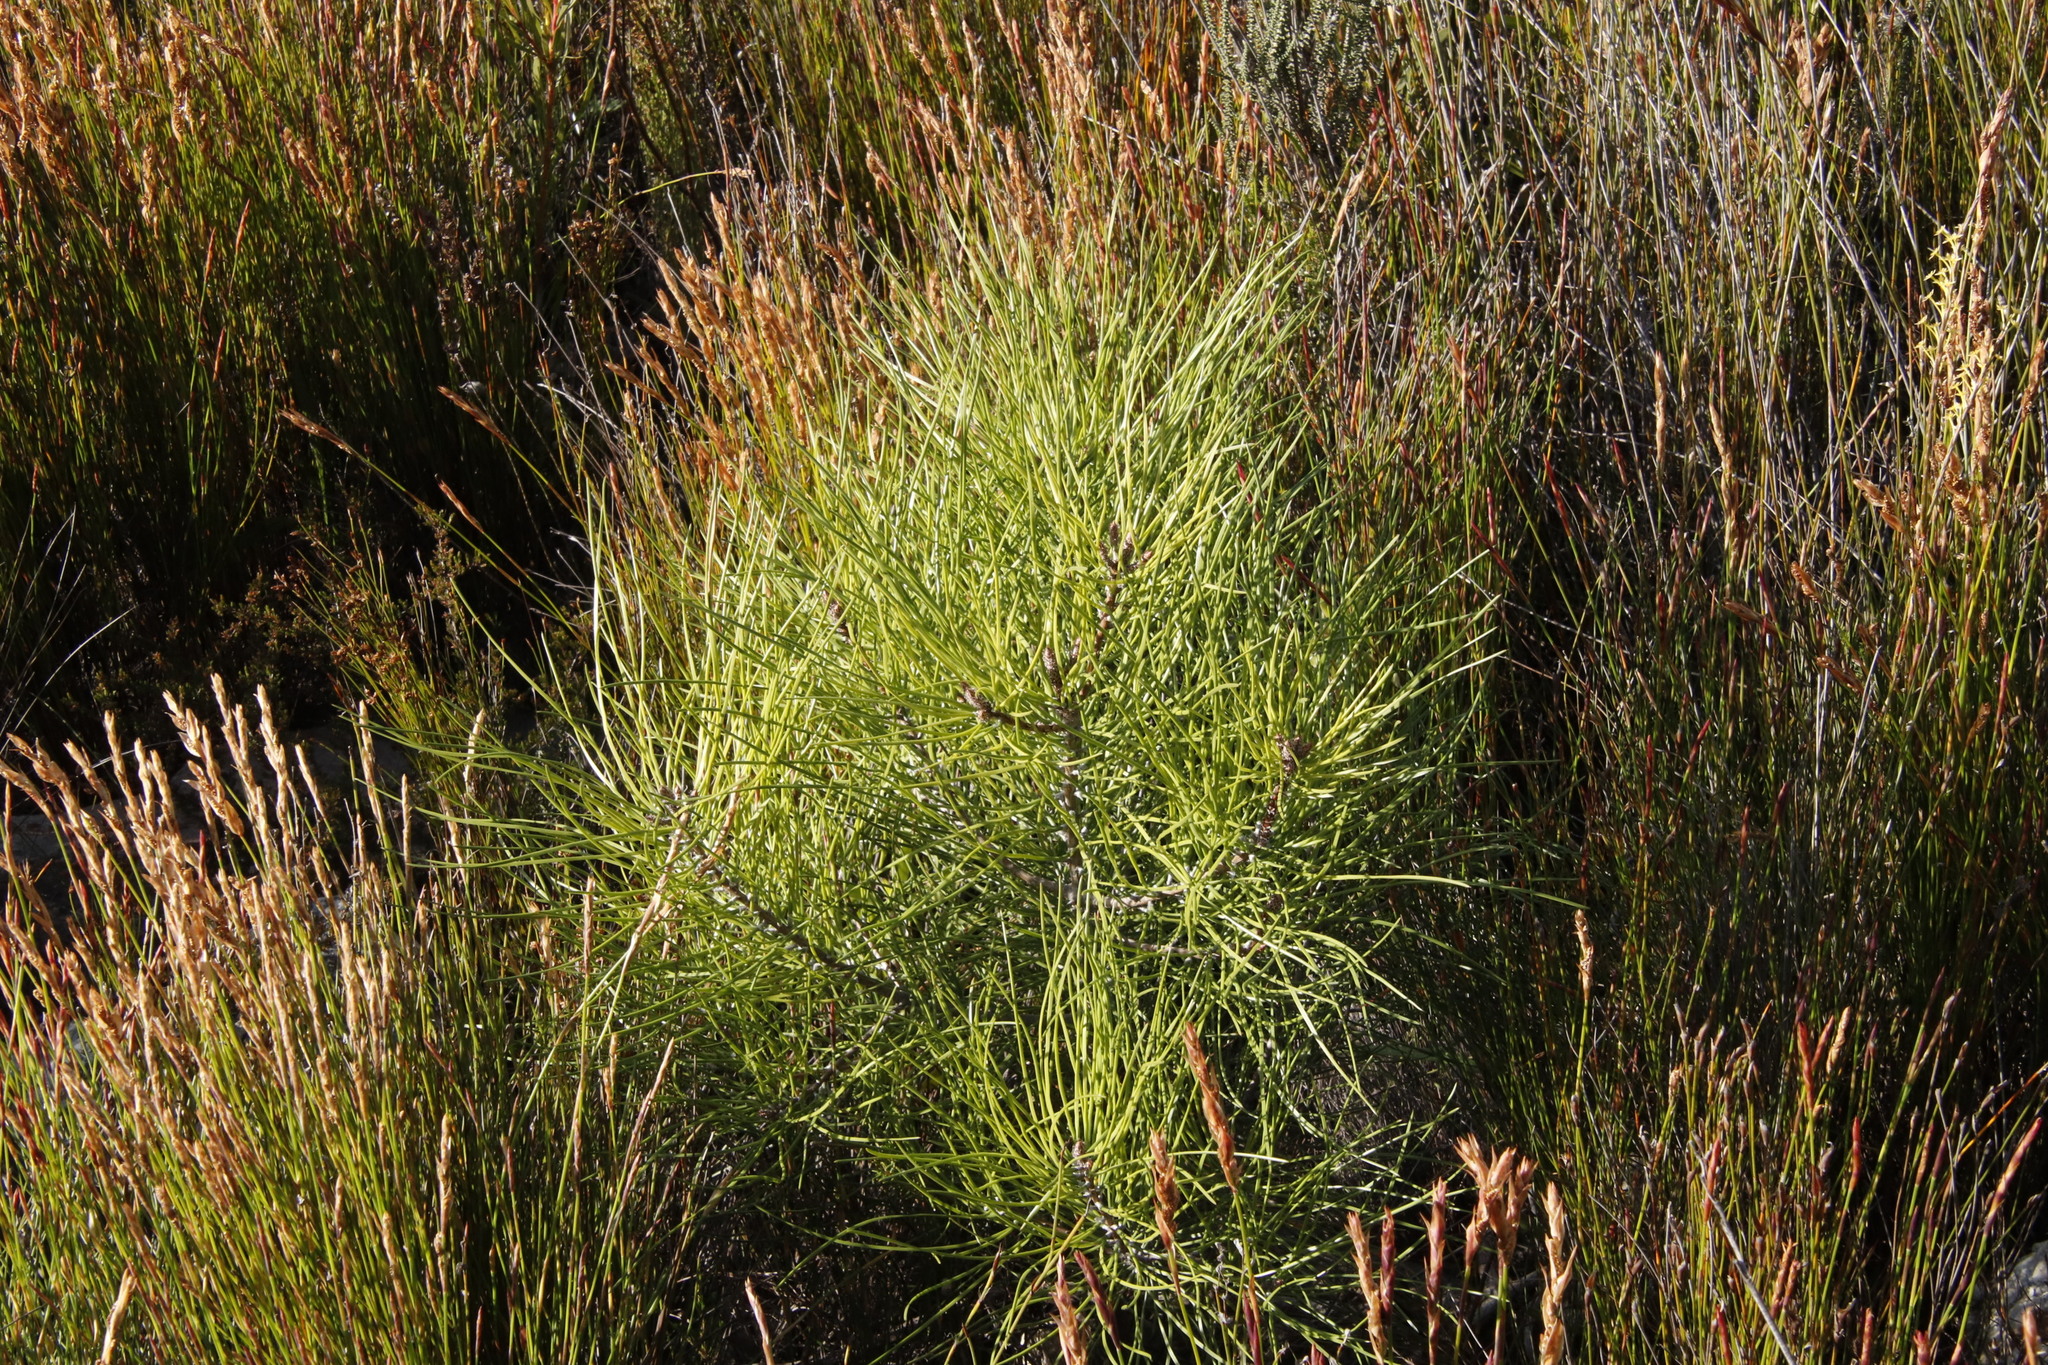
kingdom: Plantae
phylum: Tracheophyta
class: Pinopsida
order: Pinales
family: Pinaceae
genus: Pinus
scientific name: Pinus pinaster
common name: Maritime pine
